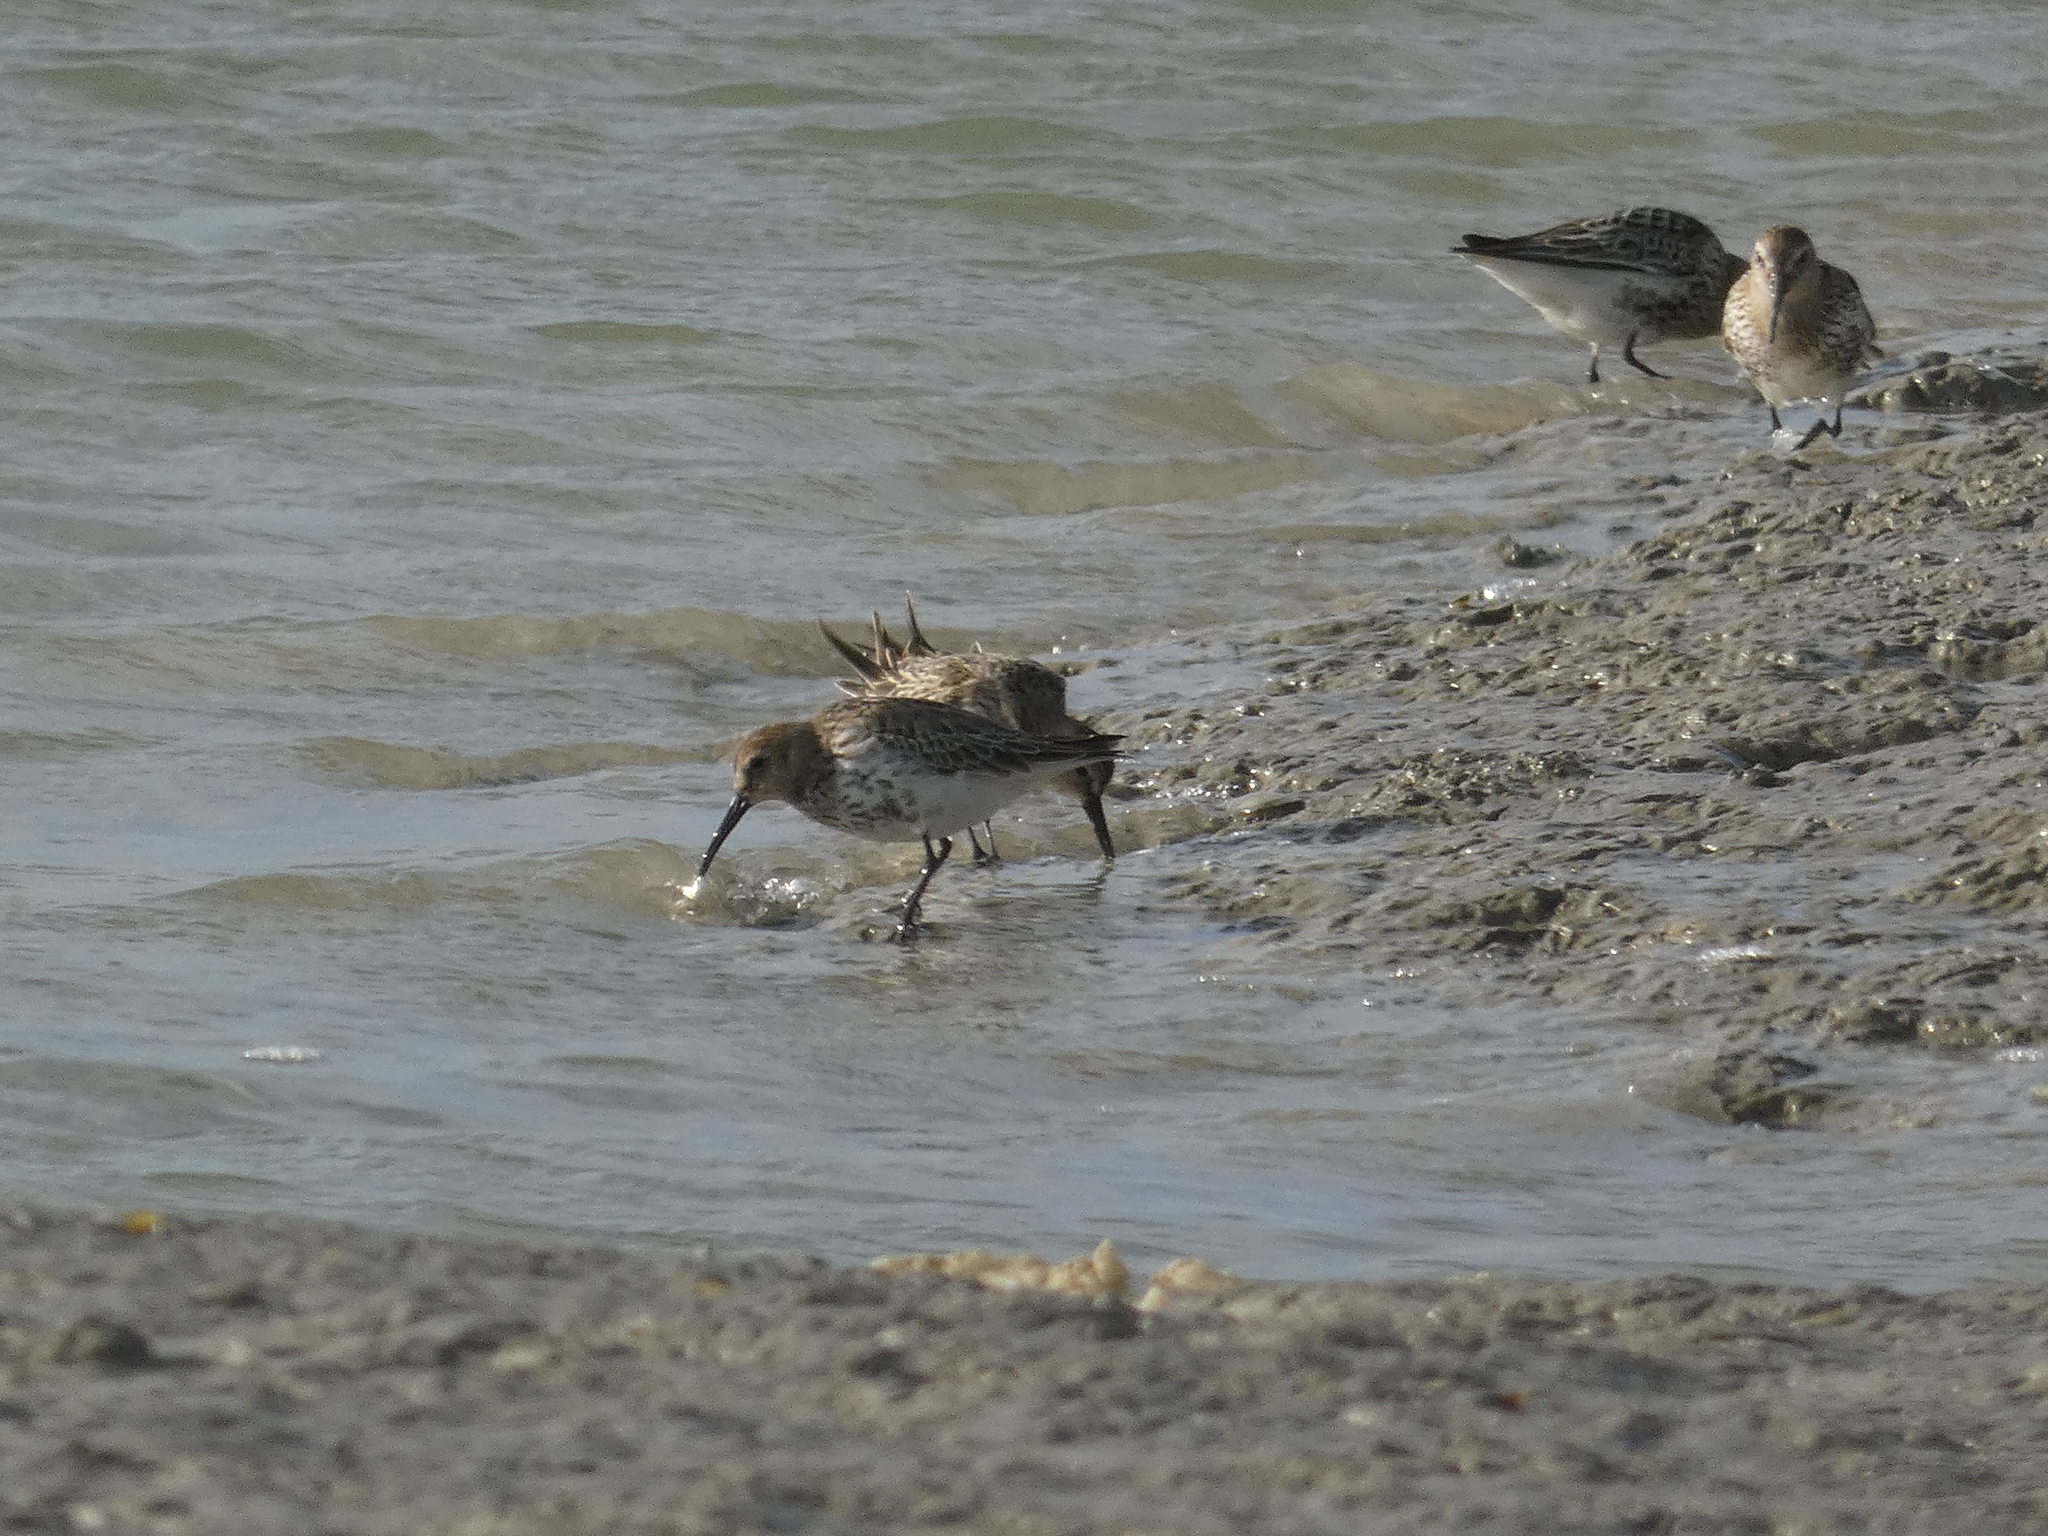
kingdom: Animalia
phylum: Chordata
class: Aves
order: Charadriiformes
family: Scolopacidae
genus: Calidris
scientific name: Calidris alpina
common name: Dunlin
